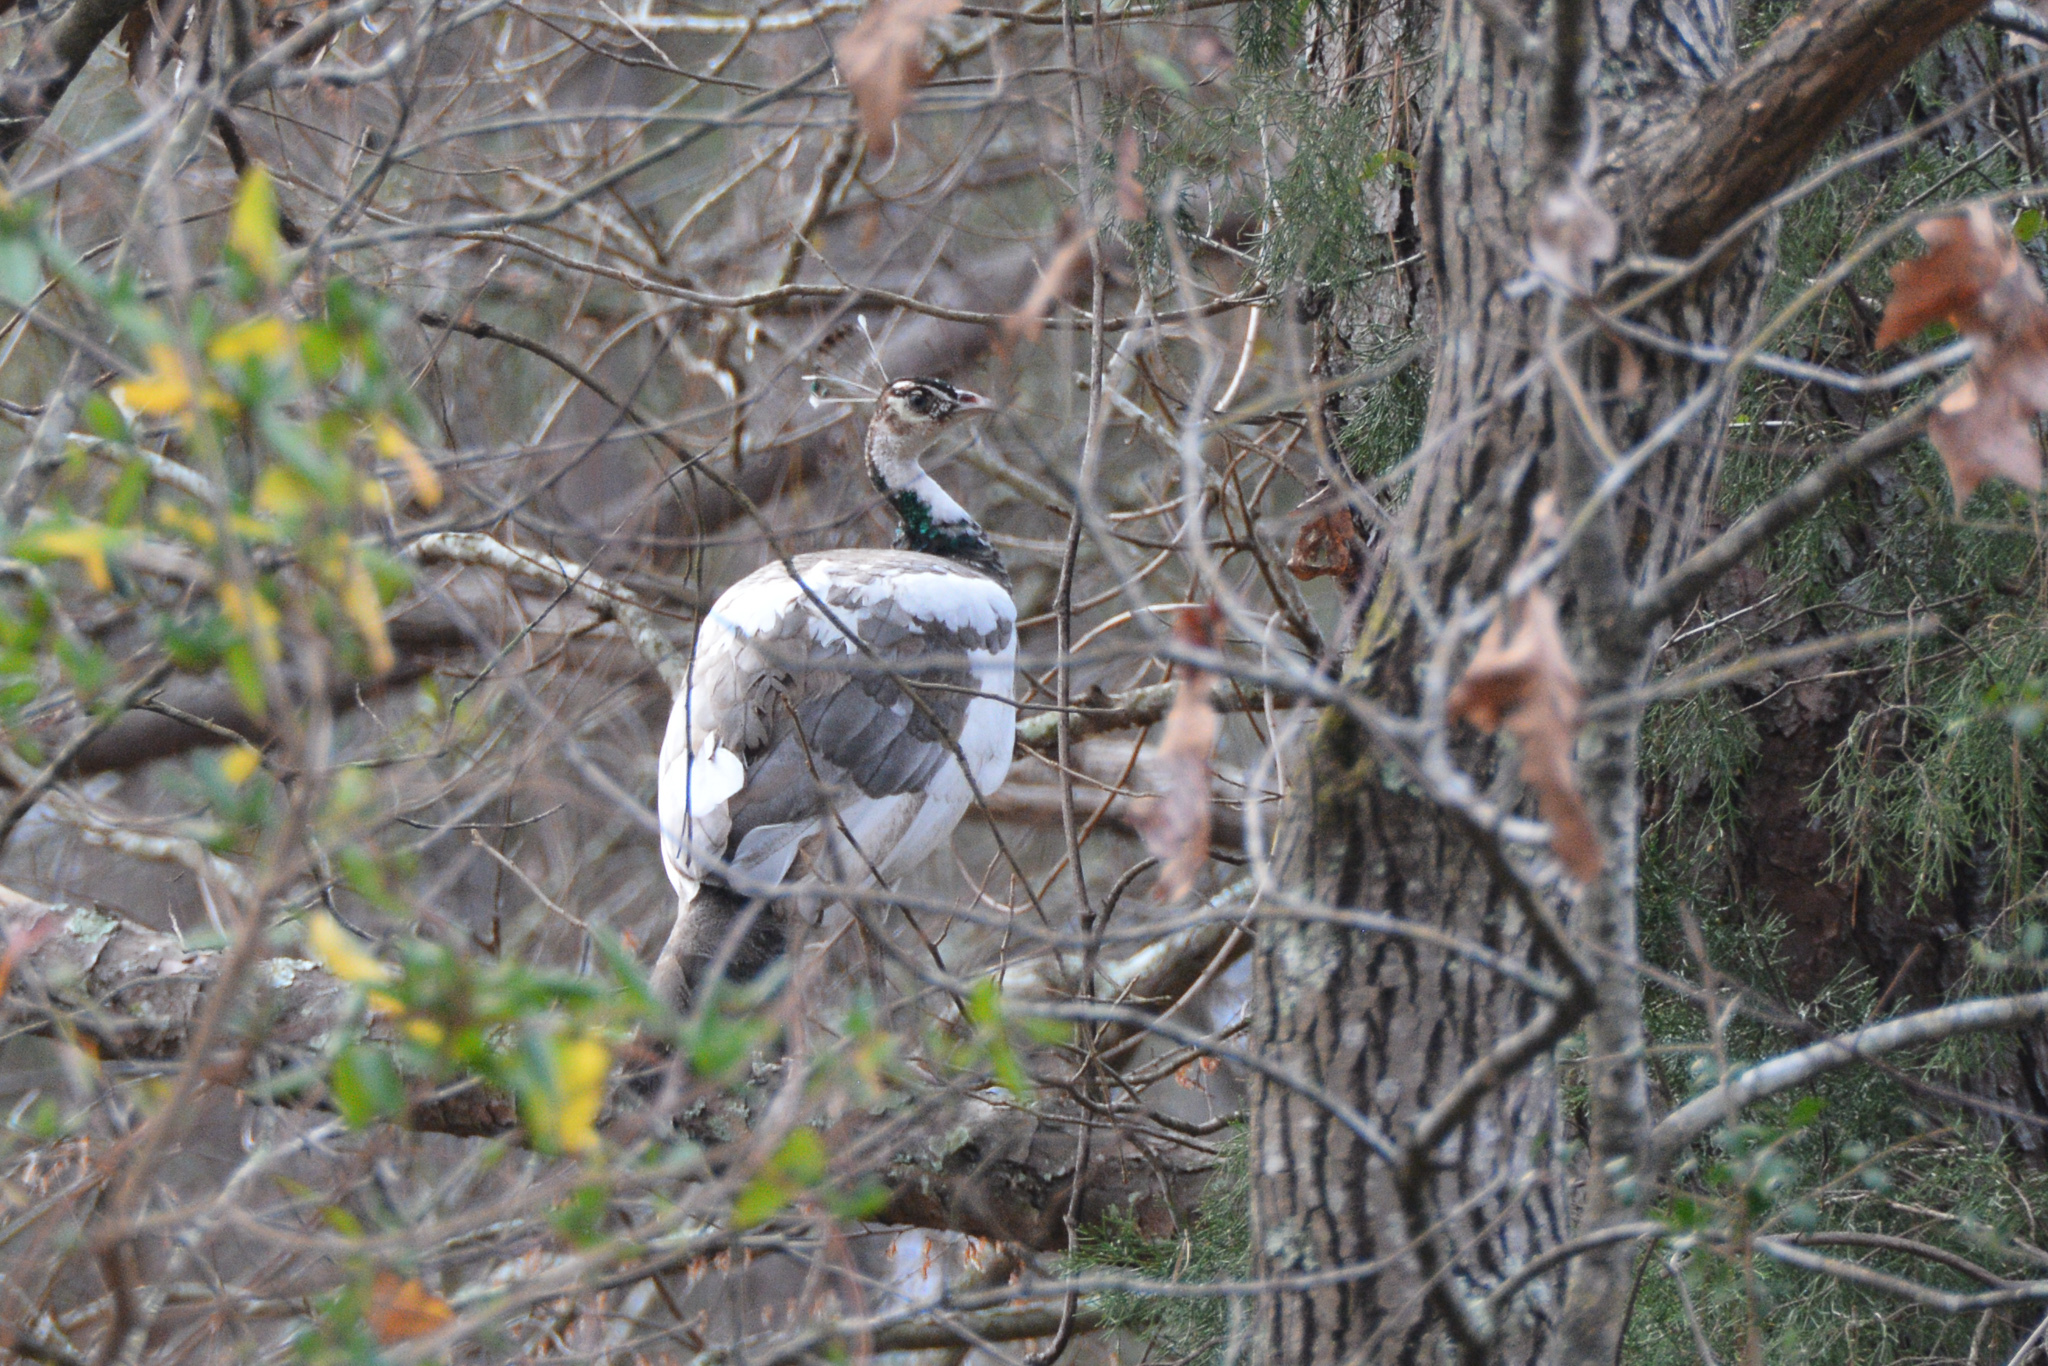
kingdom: Animalia
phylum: Chordata
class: Aves
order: Galliformes
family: Phasianidae
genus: Pavo
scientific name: Pavo cristatus
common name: Indian peafowl
